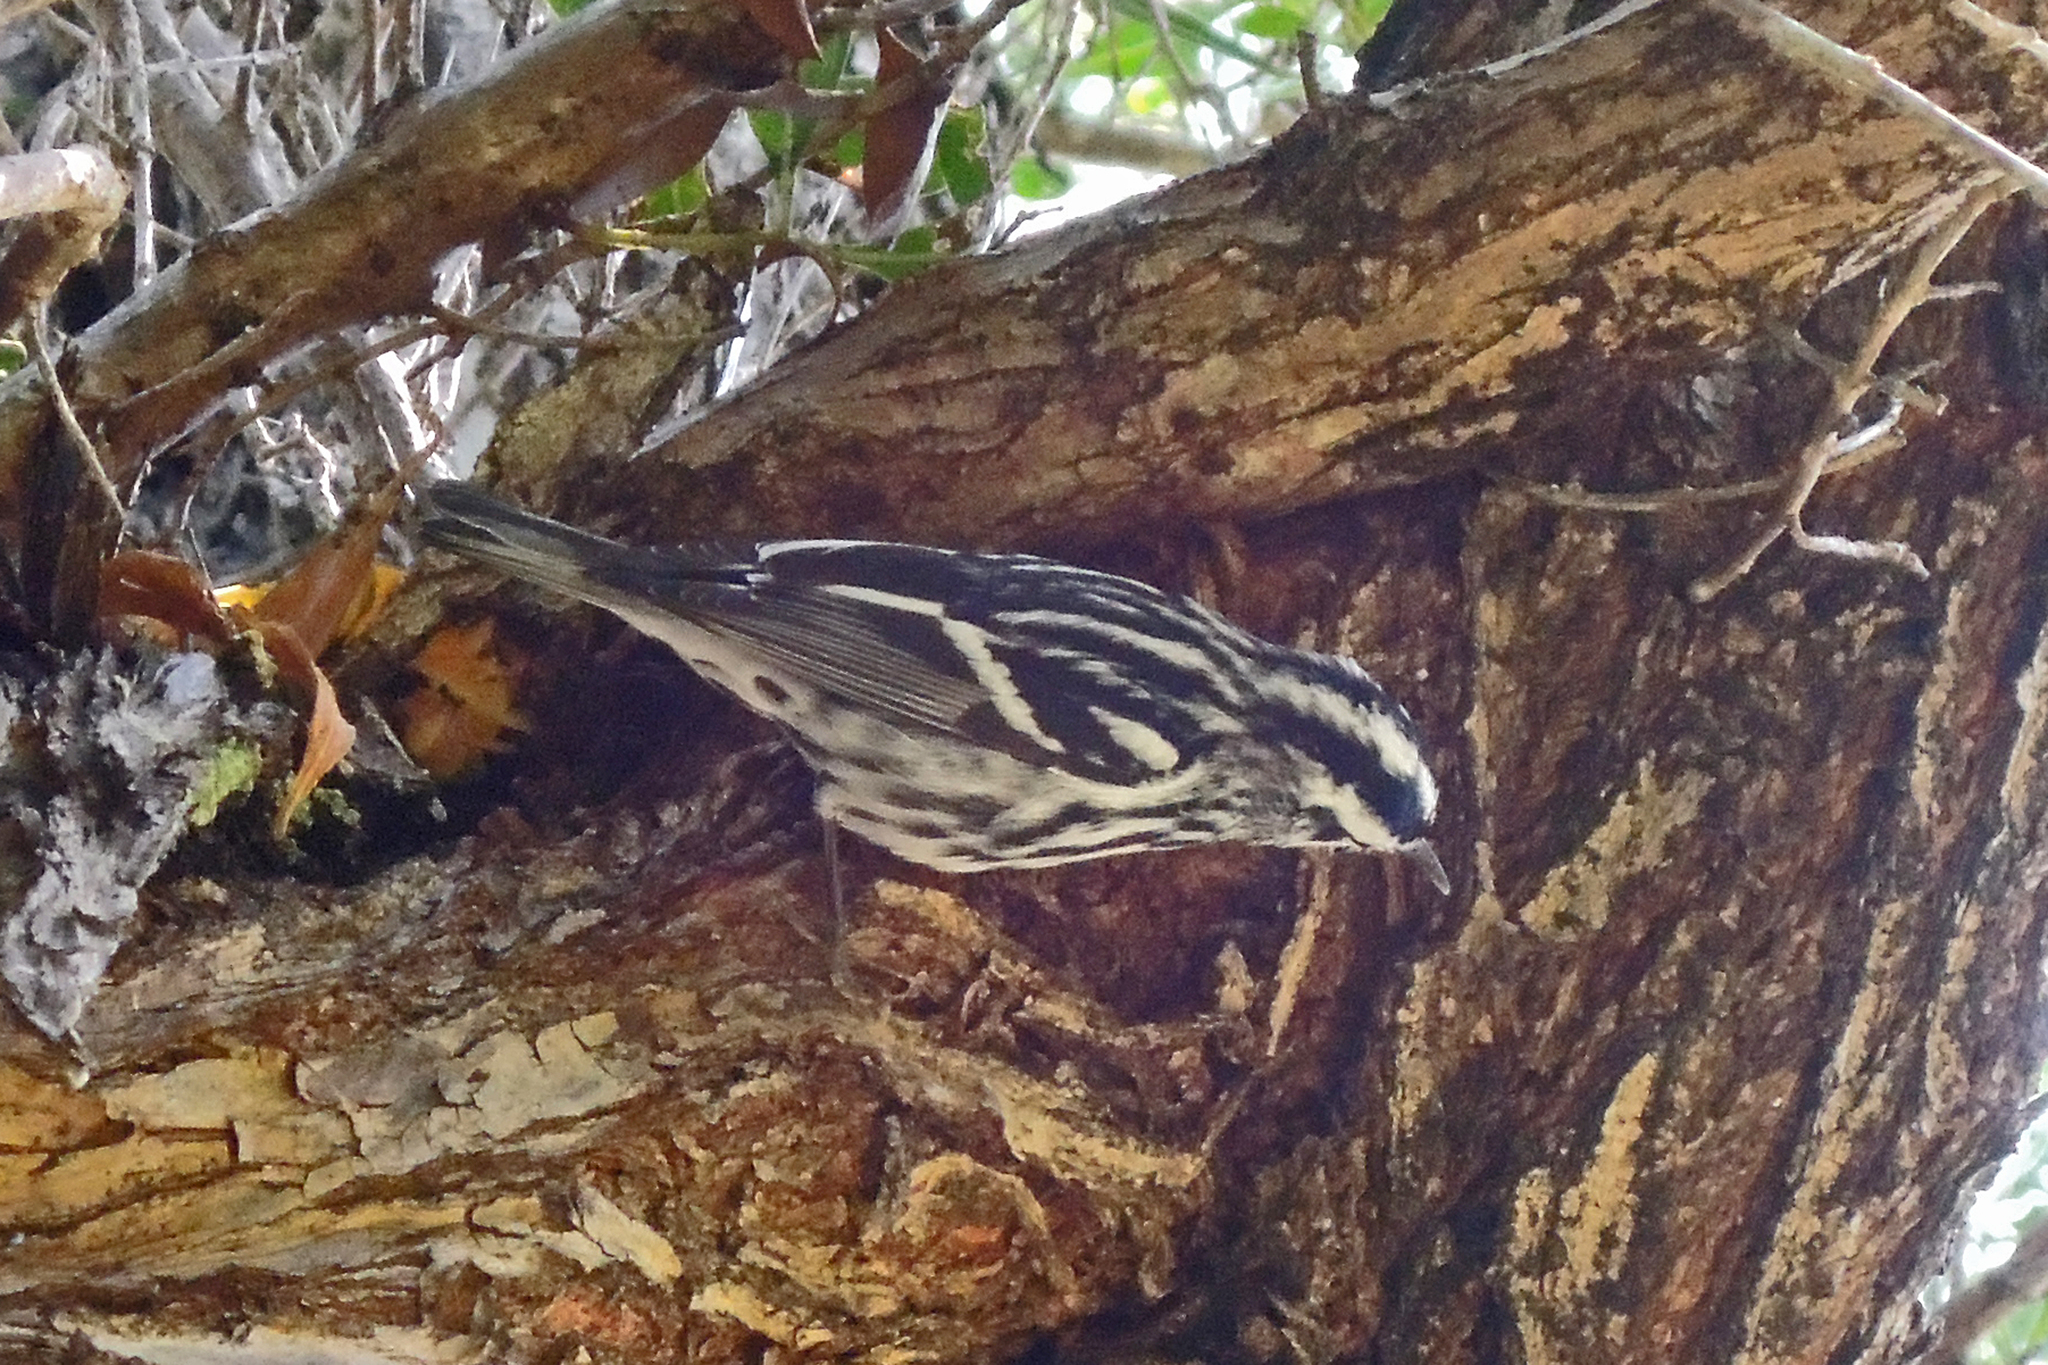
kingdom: Animalia
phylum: Chordata
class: Aves
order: Passeriformes
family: Parulidae
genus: Mniotilta
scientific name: Mniotilta varia
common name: Black-and-white warbler
